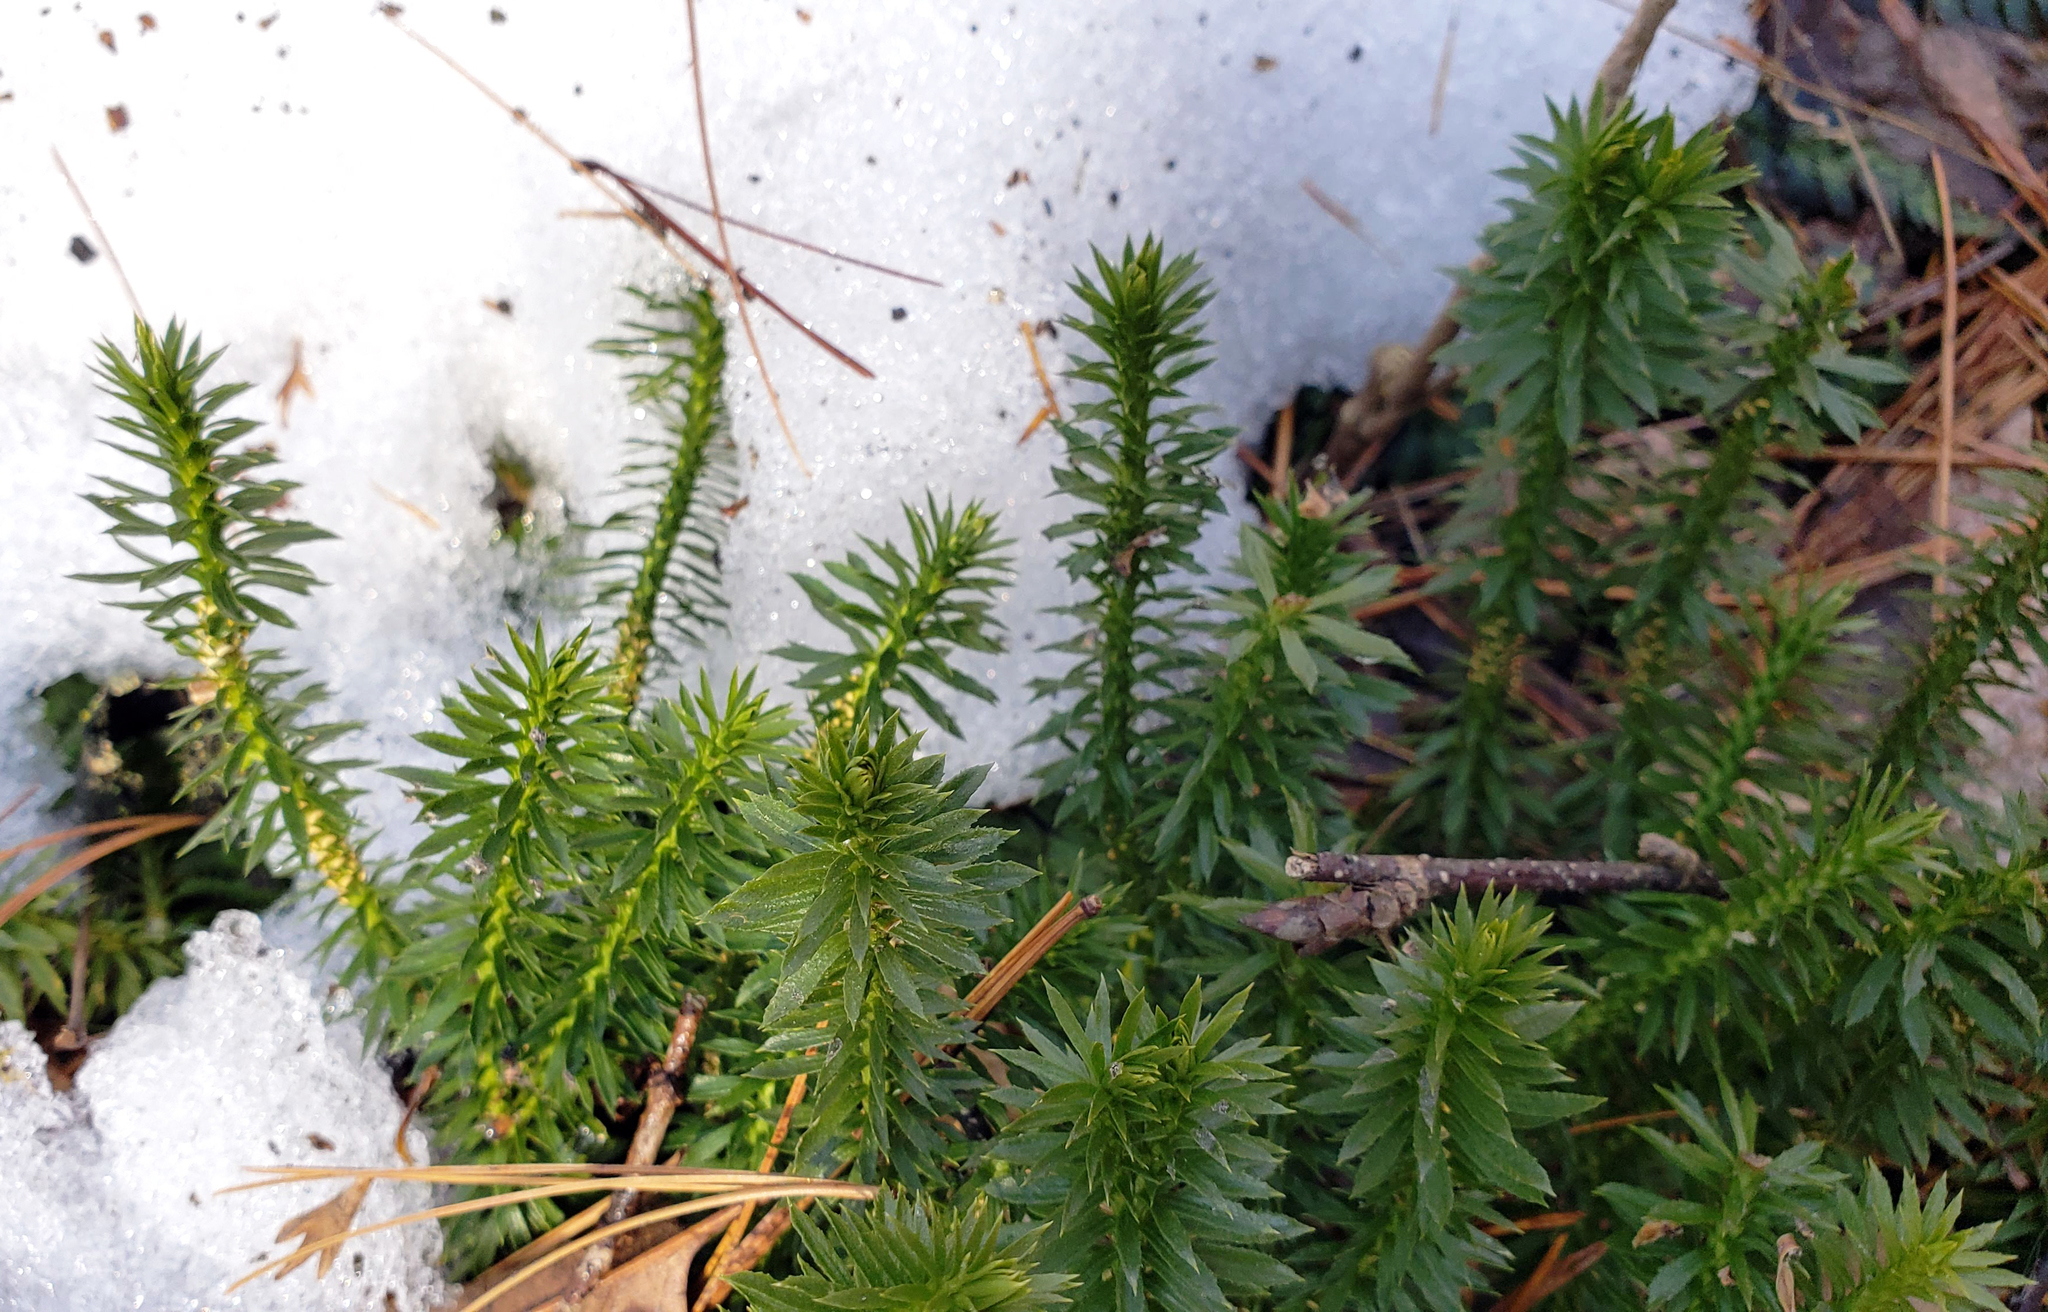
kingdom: Plantae
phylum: Tracheophyta
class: Lycopodiopsida
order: Lycopodiales
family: Lycopodiaceae
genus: Huperzia
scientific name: Huperzia lucidula
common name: Shining clubmoss
